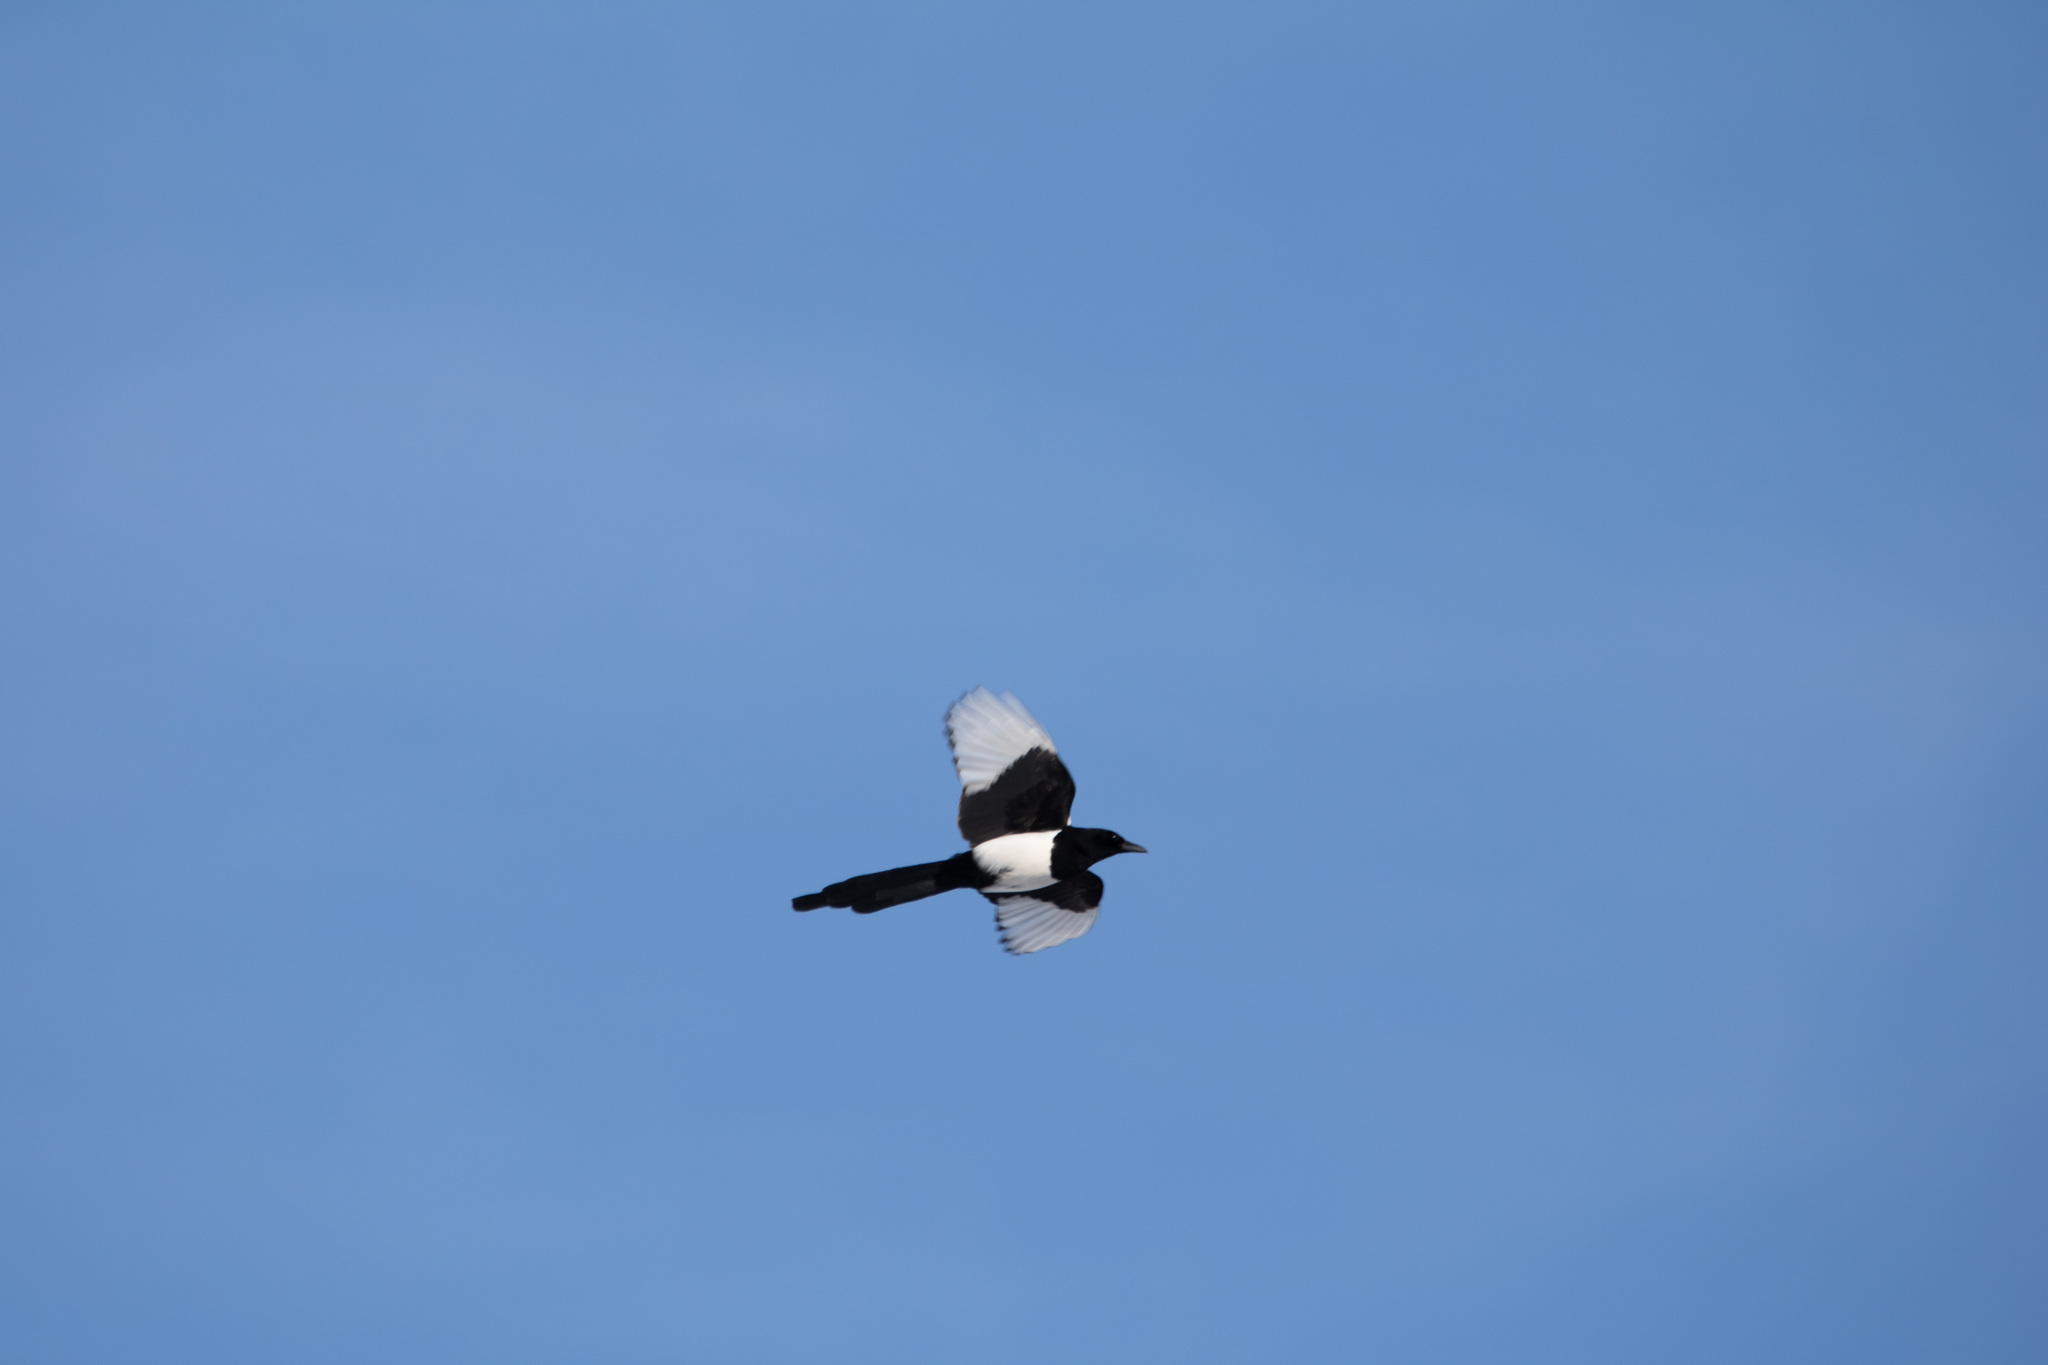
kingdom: Animalia
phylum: Chordata
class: Aves
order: Passeriformes
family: Corvidae
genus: Pica
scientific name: Pica pica
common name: Eurasian magpie
